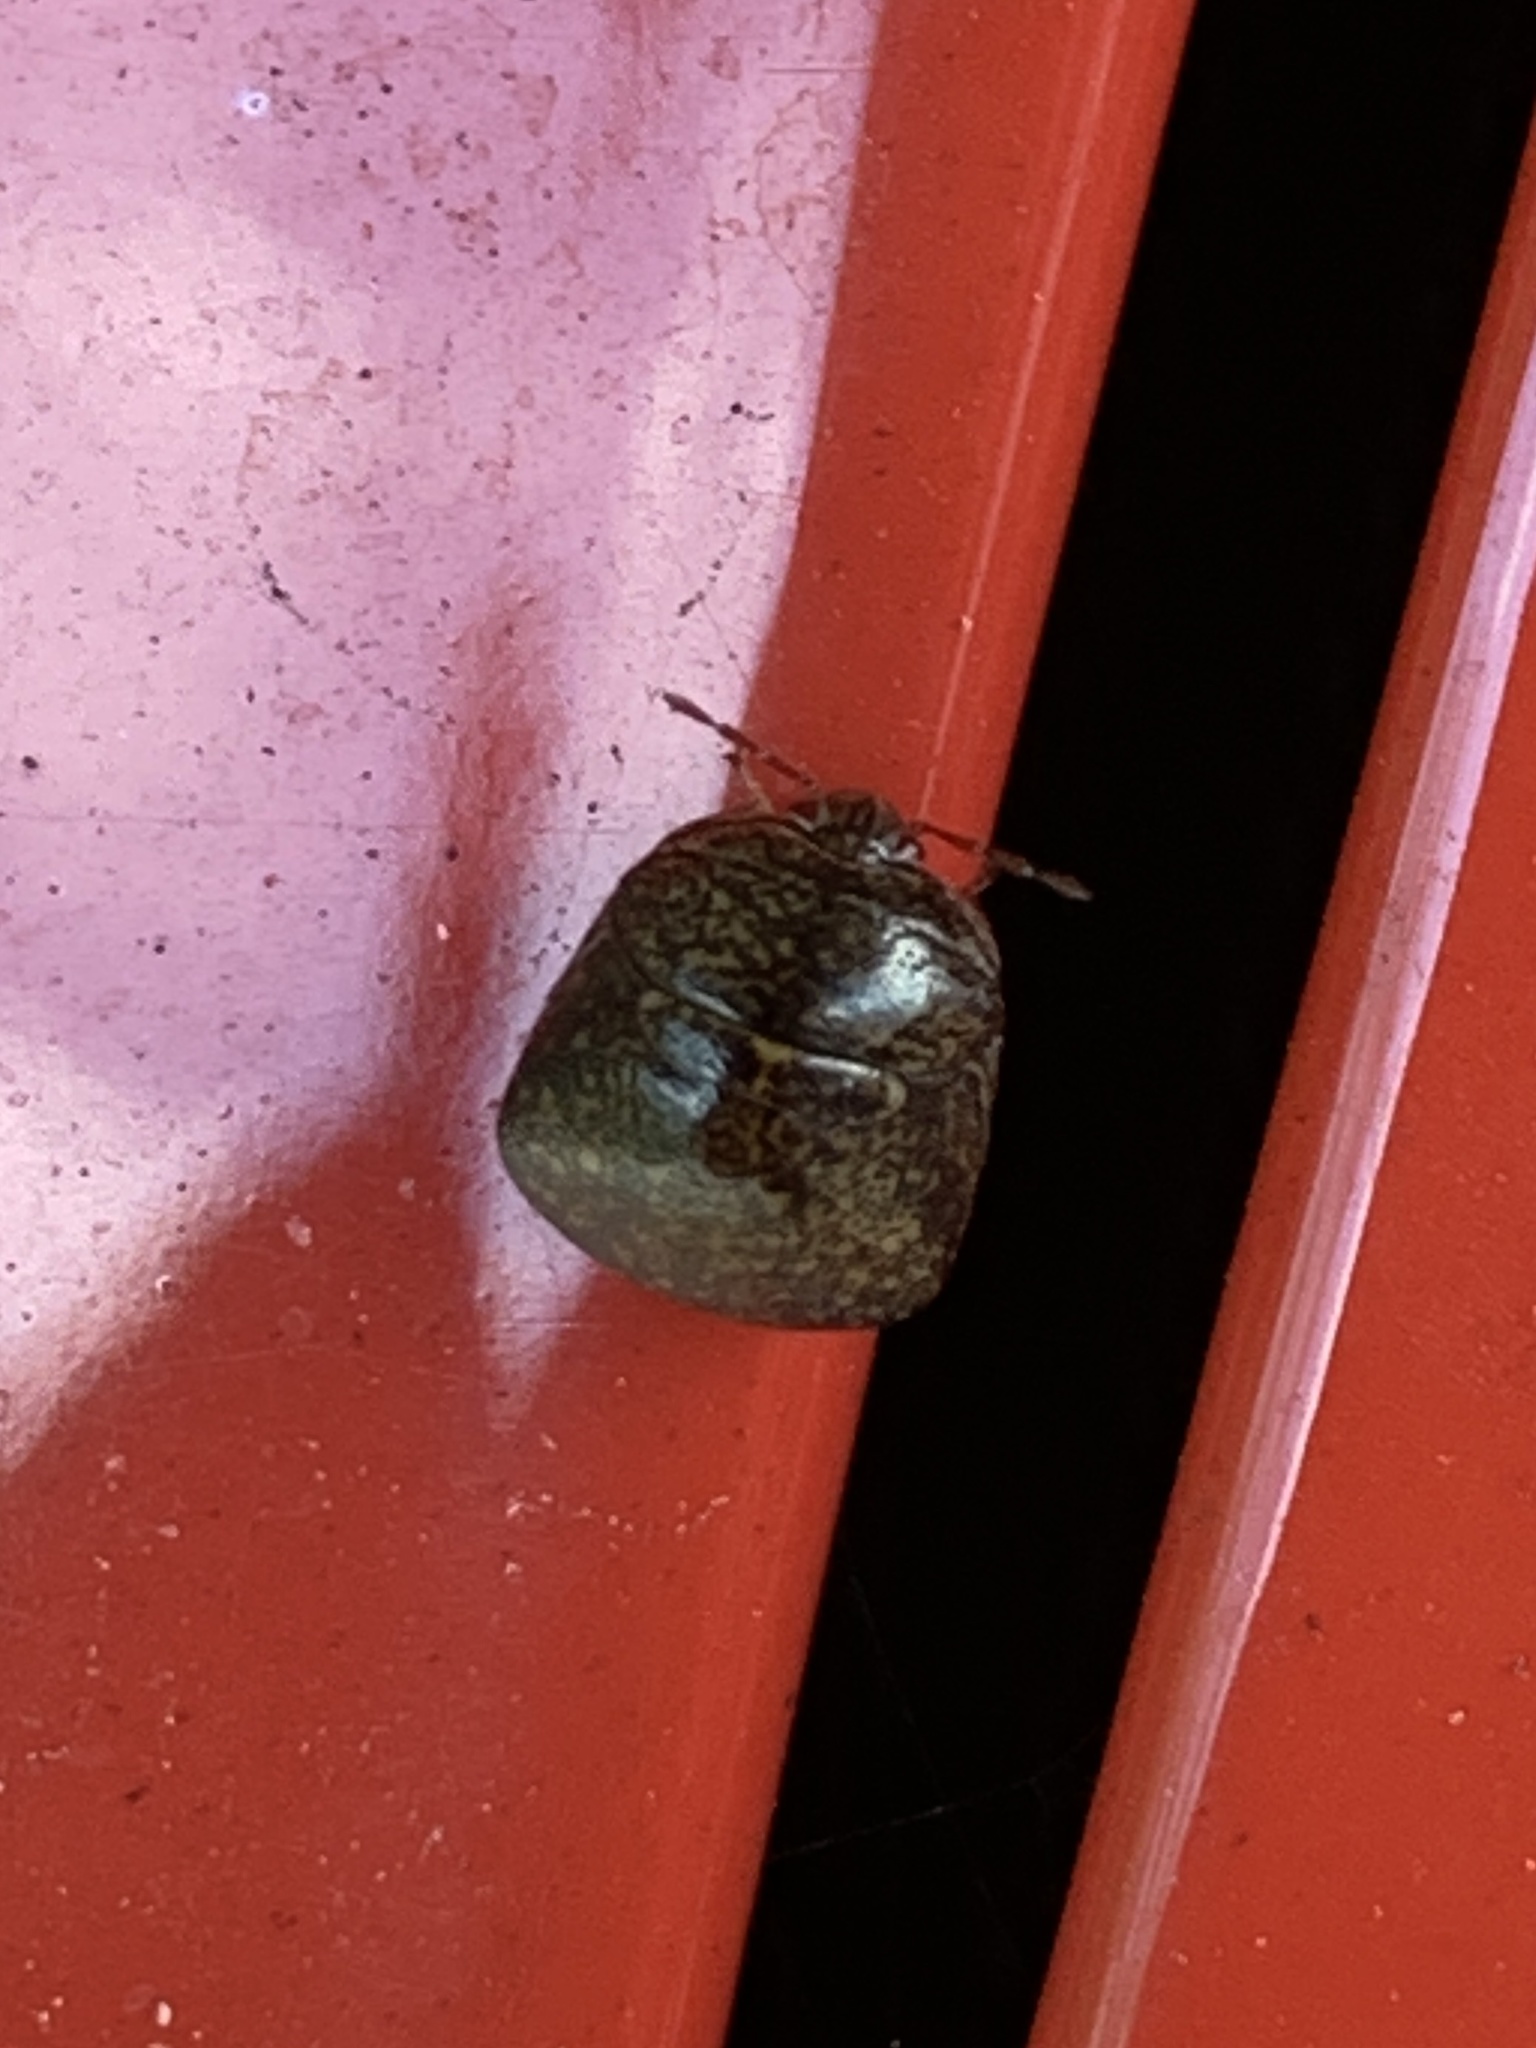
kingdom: Animalia
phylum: Arthropoda
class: Insecta
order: Hemiptera
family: Plataspidae
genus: Megacopta
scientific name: Megacopta cribraria
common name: Bean plataspid
